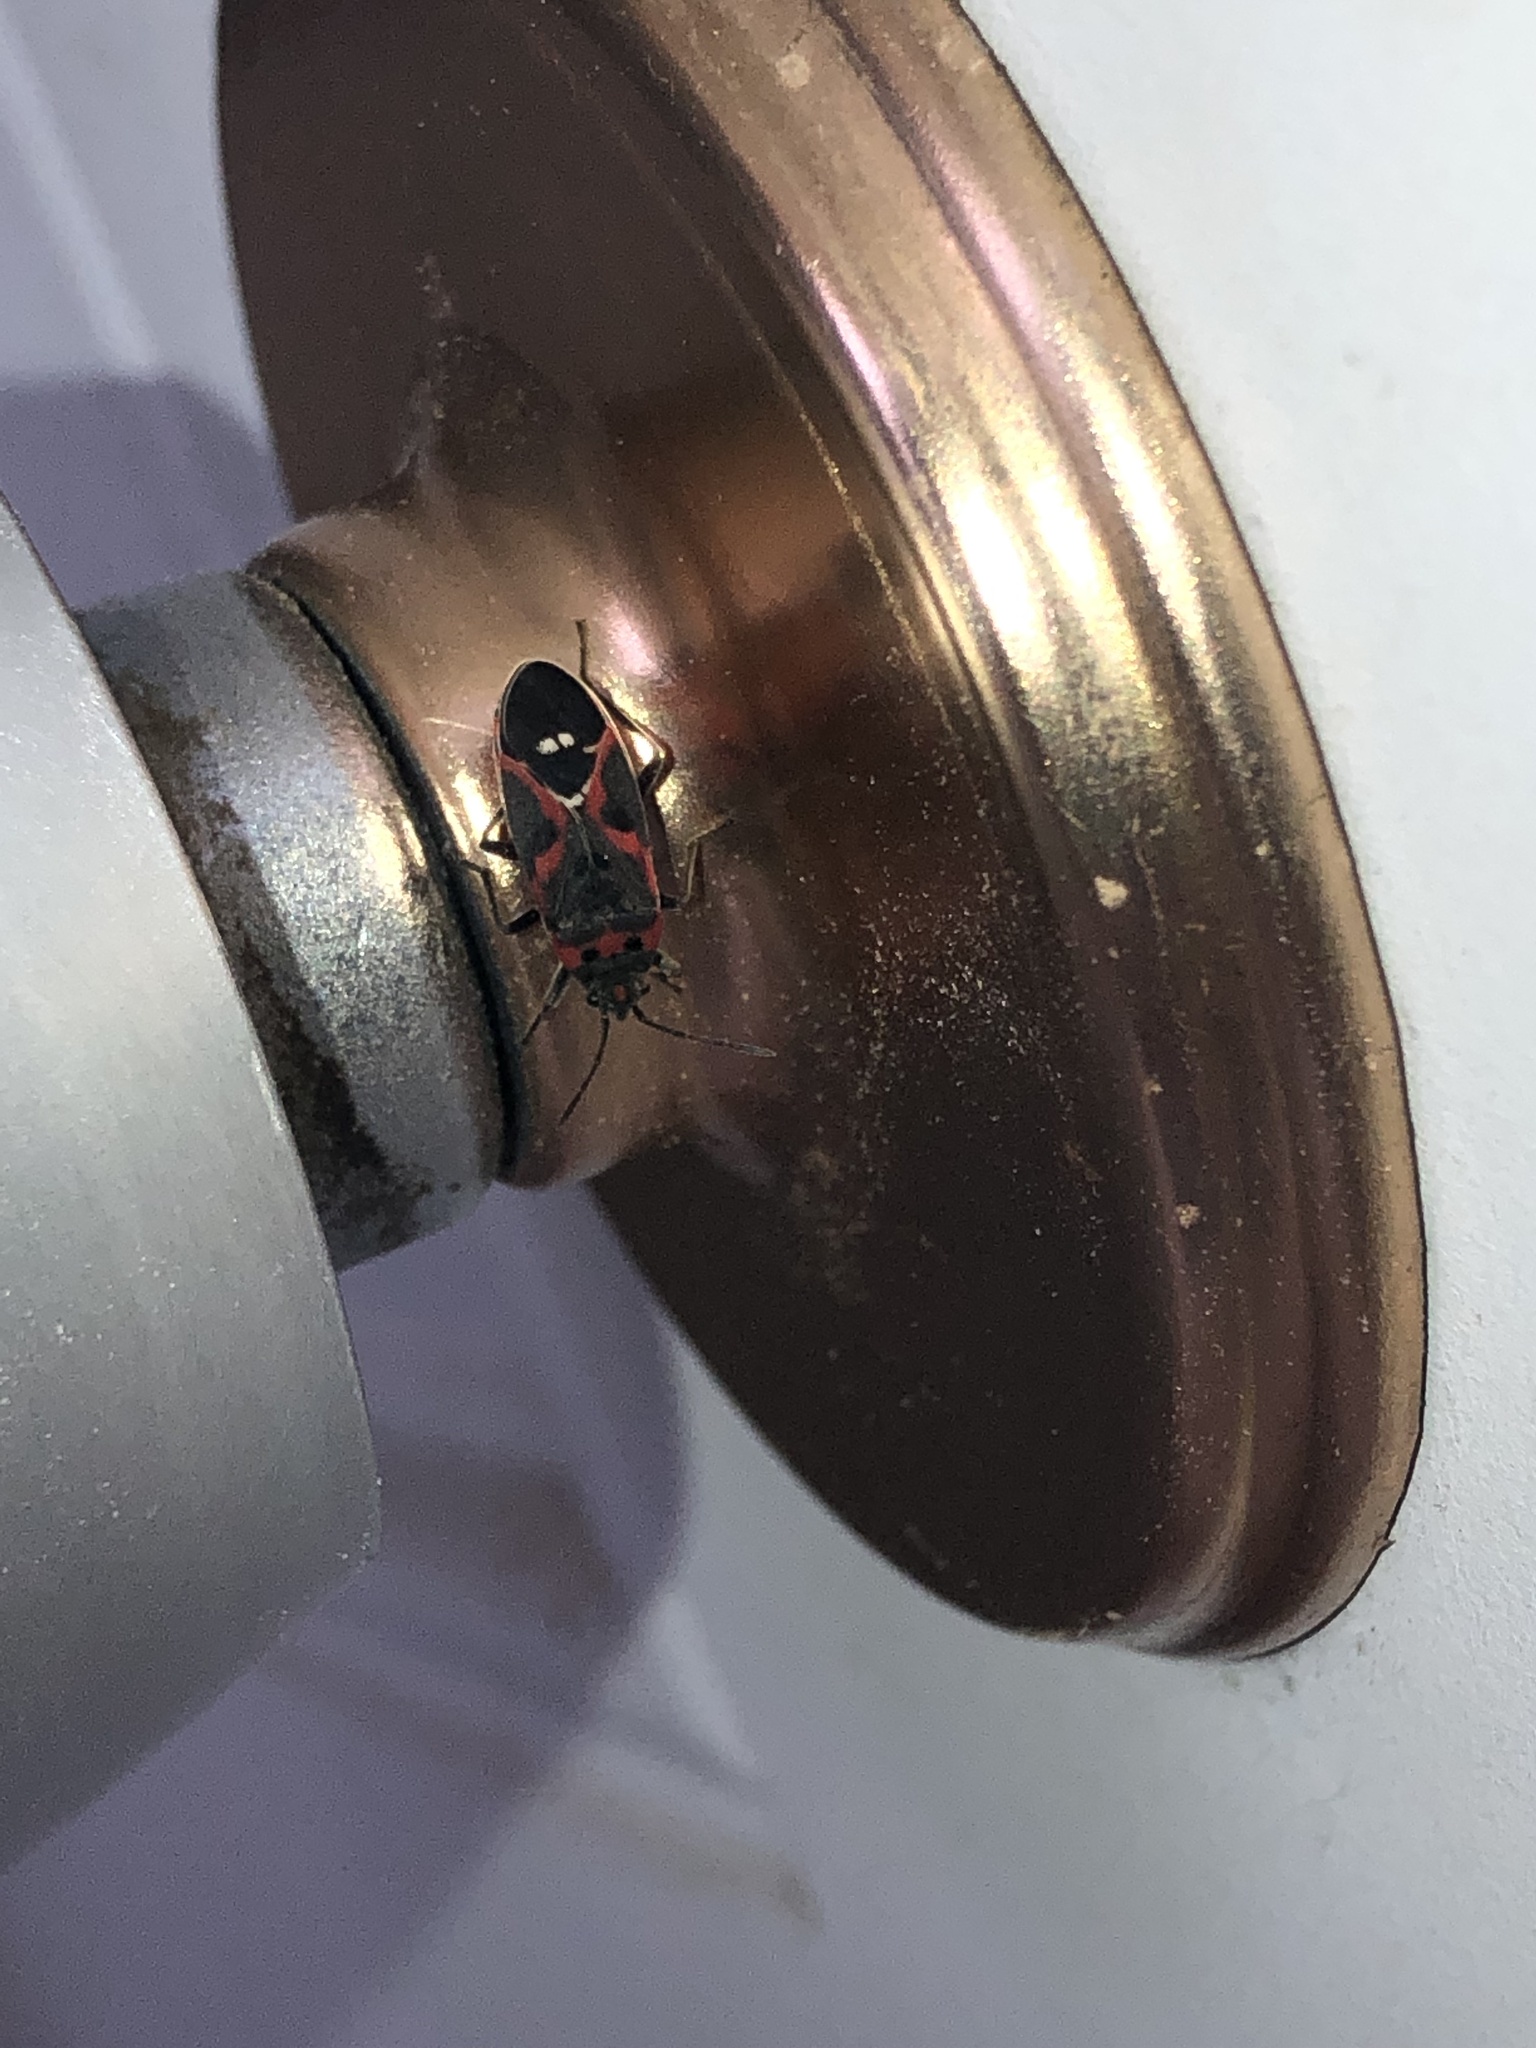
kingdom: Animalia
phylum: Arthropoda
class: Insecta
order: Hemiptera
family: Lygaeidae
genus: Lygaeus
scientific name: Lygaeus kalmii
